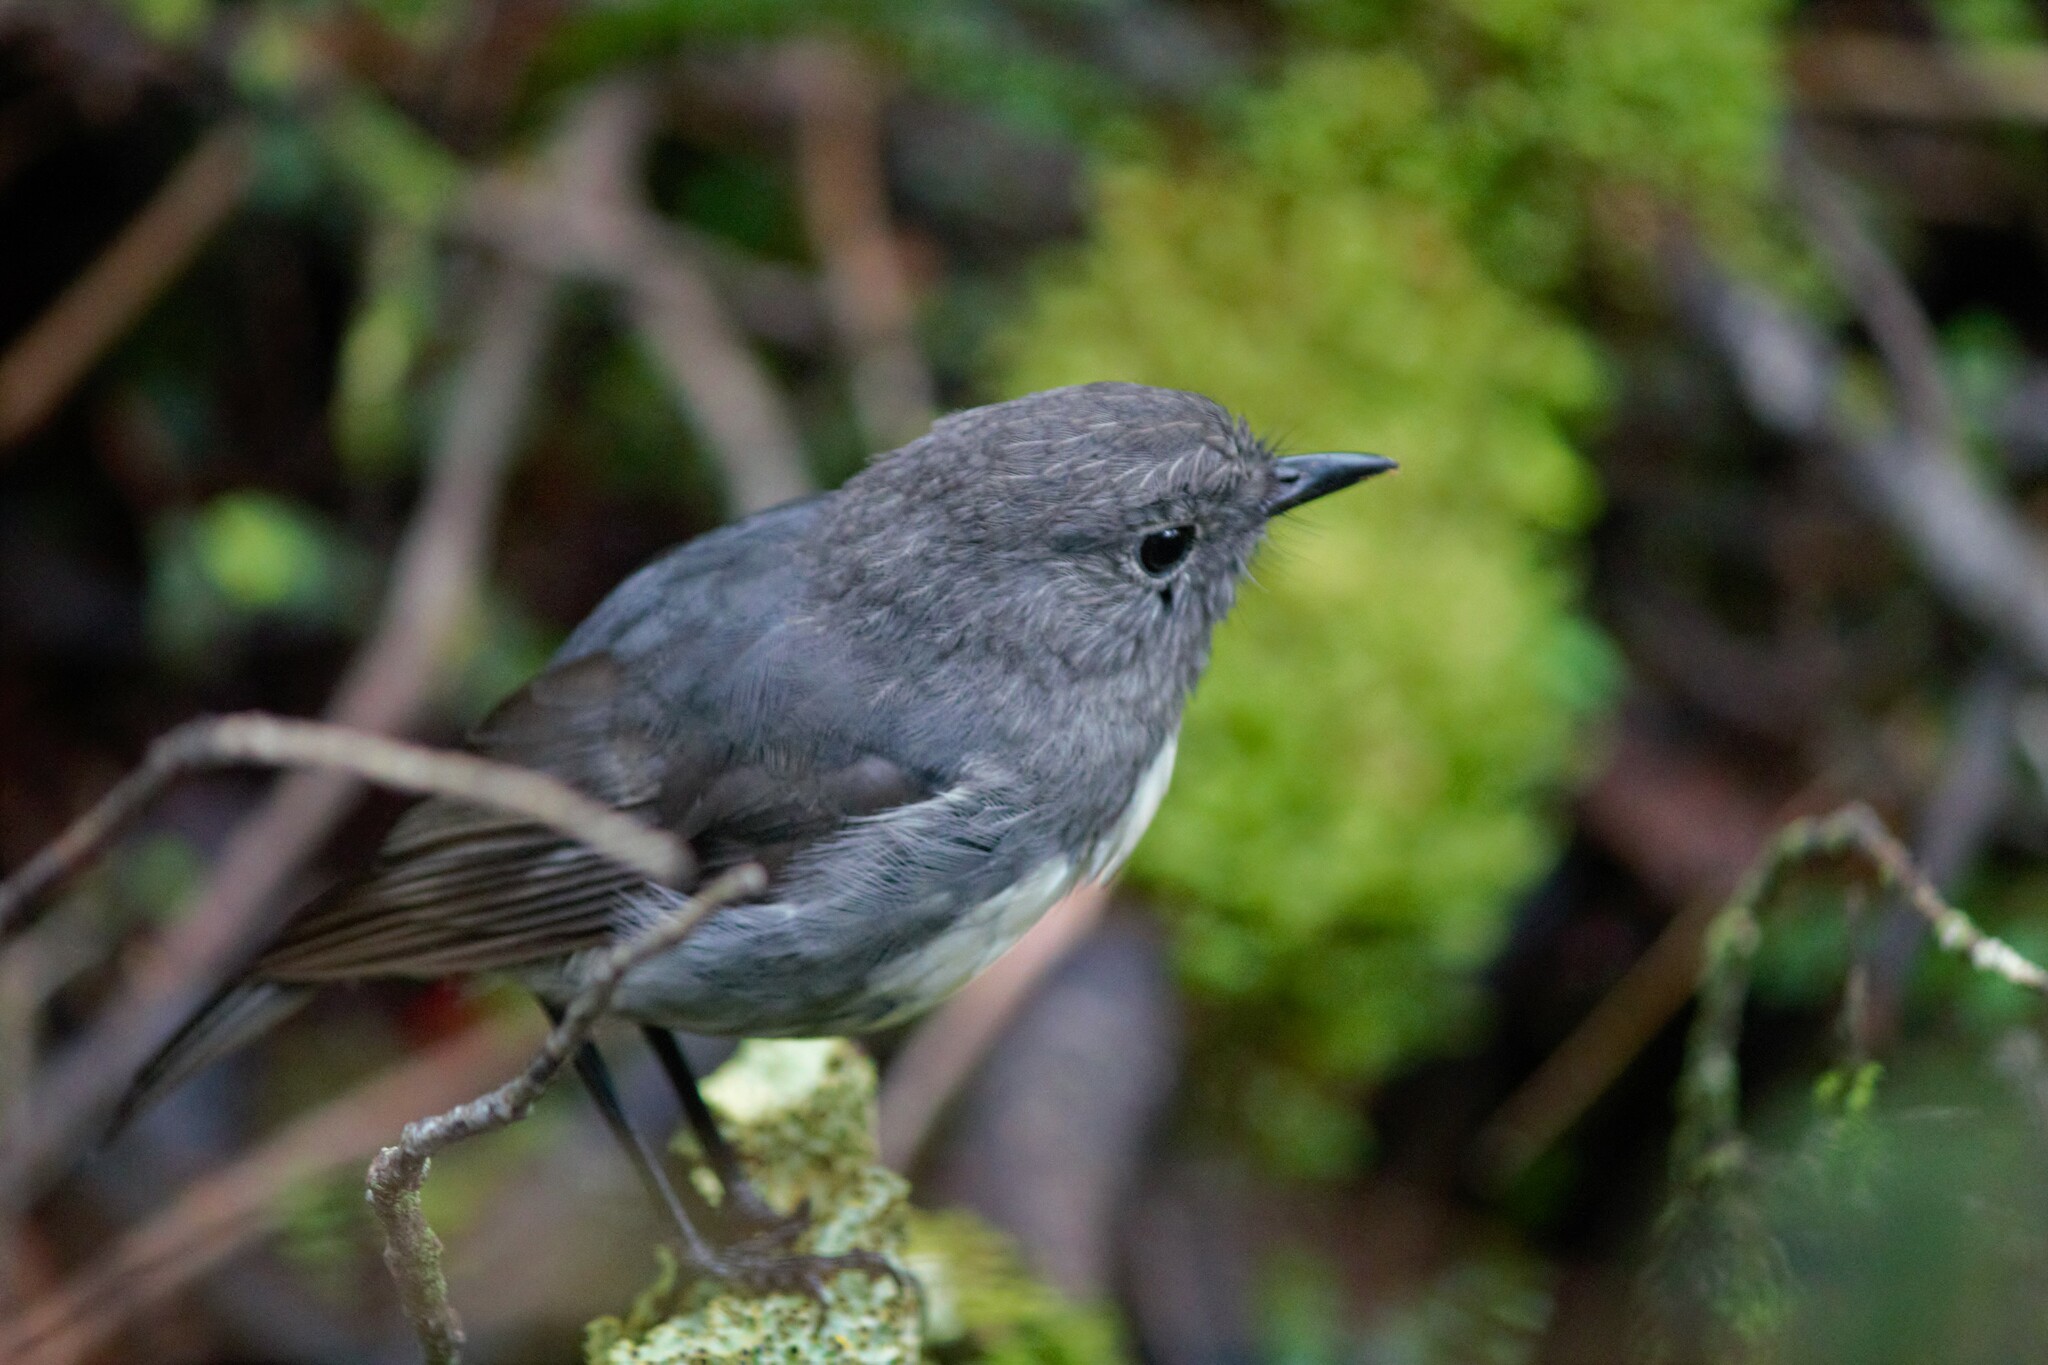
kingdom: Animalia
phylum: Chordata
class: Aves
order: Passeriformes
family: Petroicidae
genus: Petroica
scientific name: Petroica australis
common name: New zealand robin
